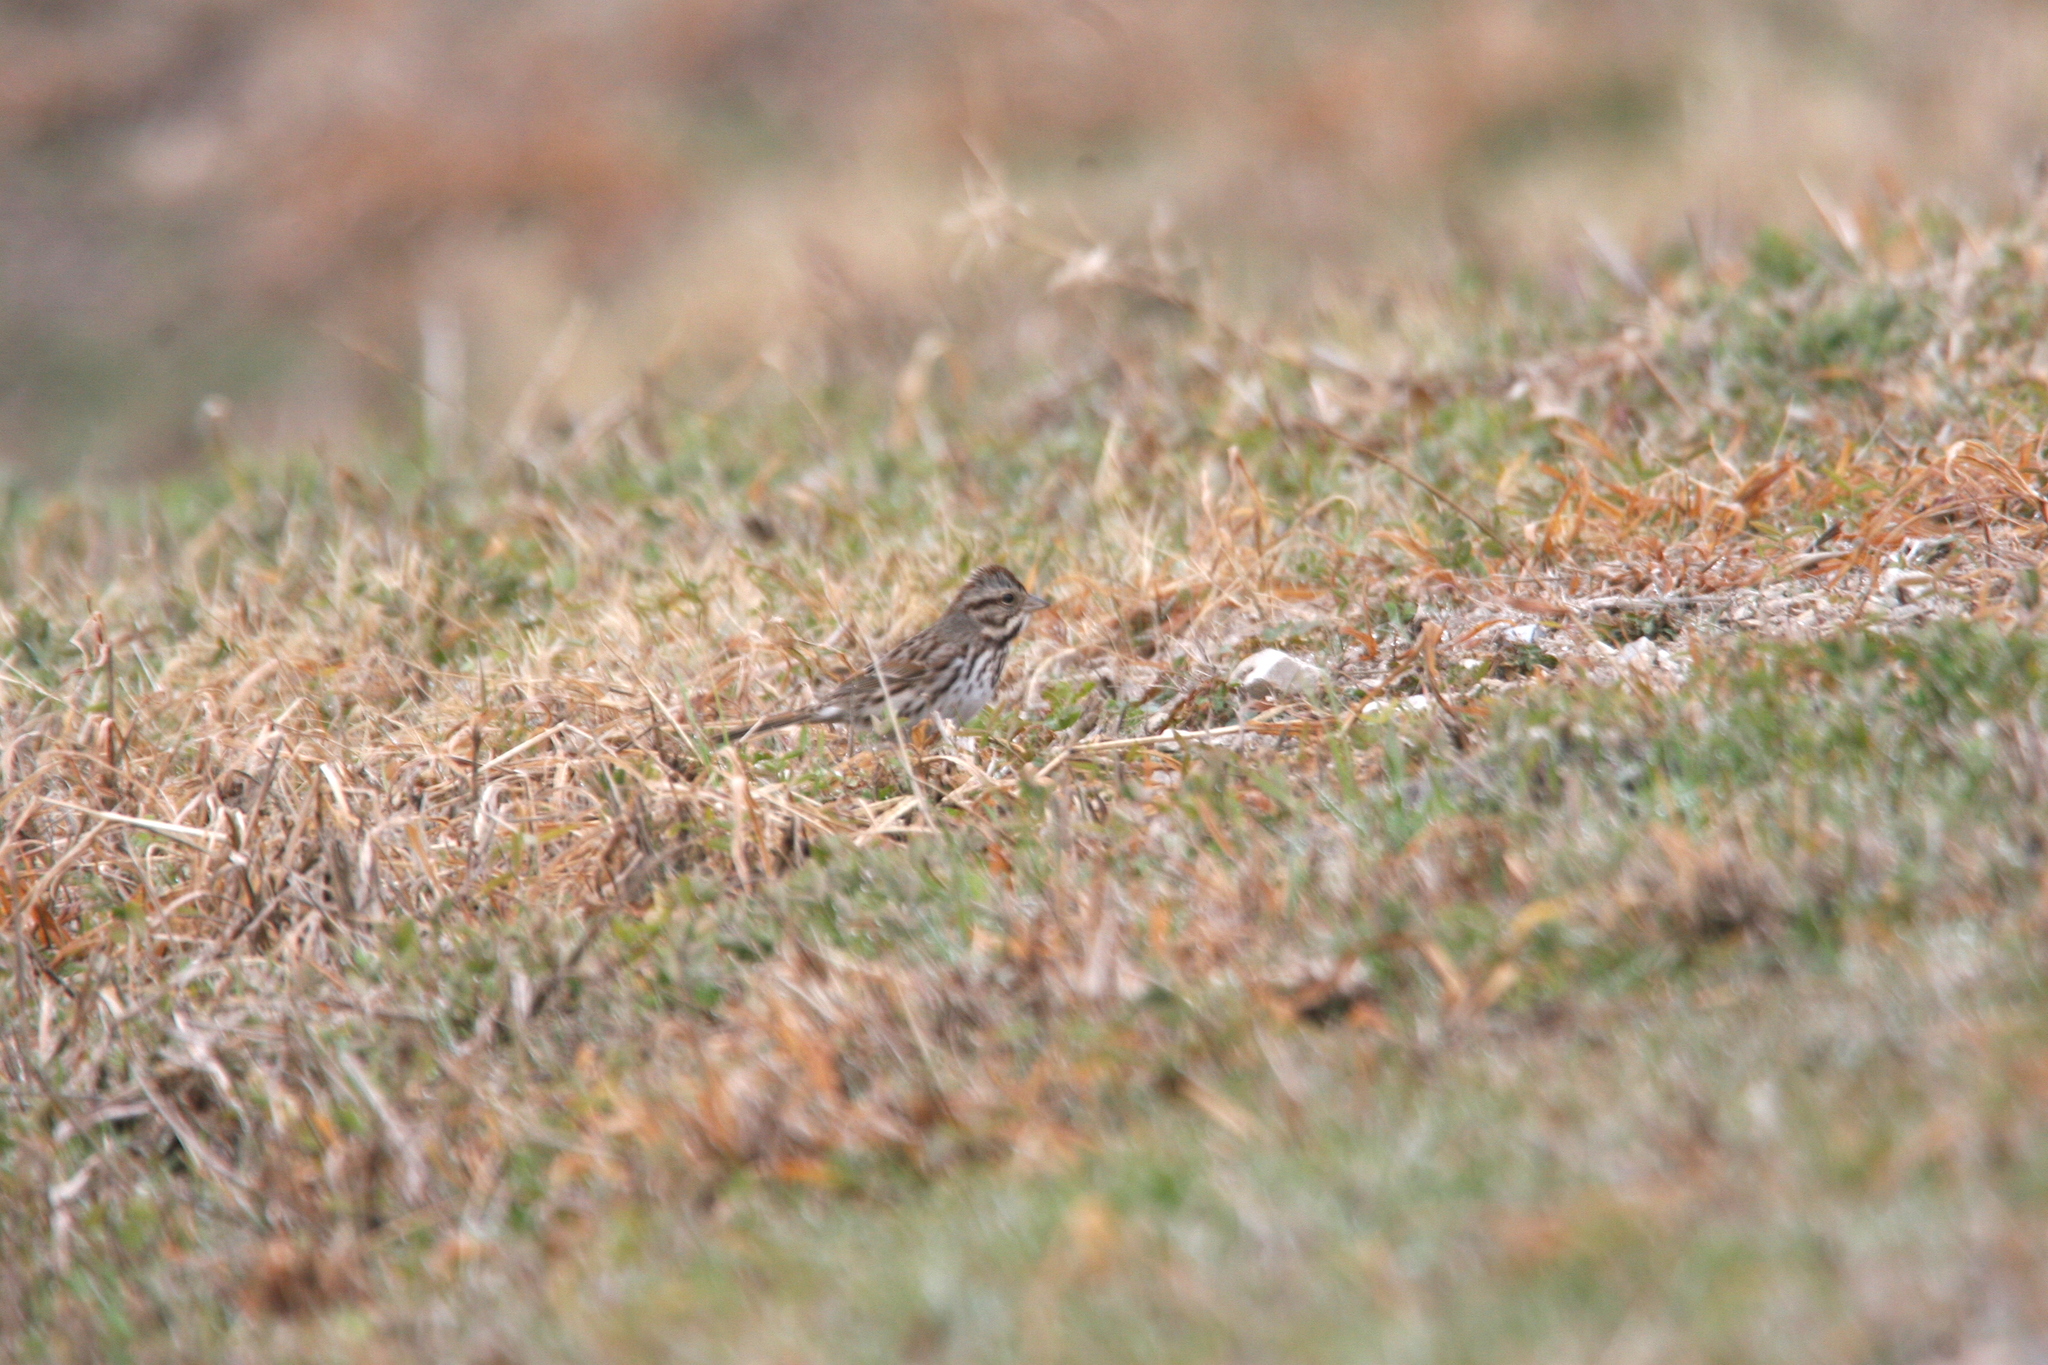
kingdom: Animalia
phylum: Chordata
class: Aves
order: Passeriformes
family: Passerellidae
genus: Melospiza
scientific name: Melospiza melodia
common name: Song sparrow
